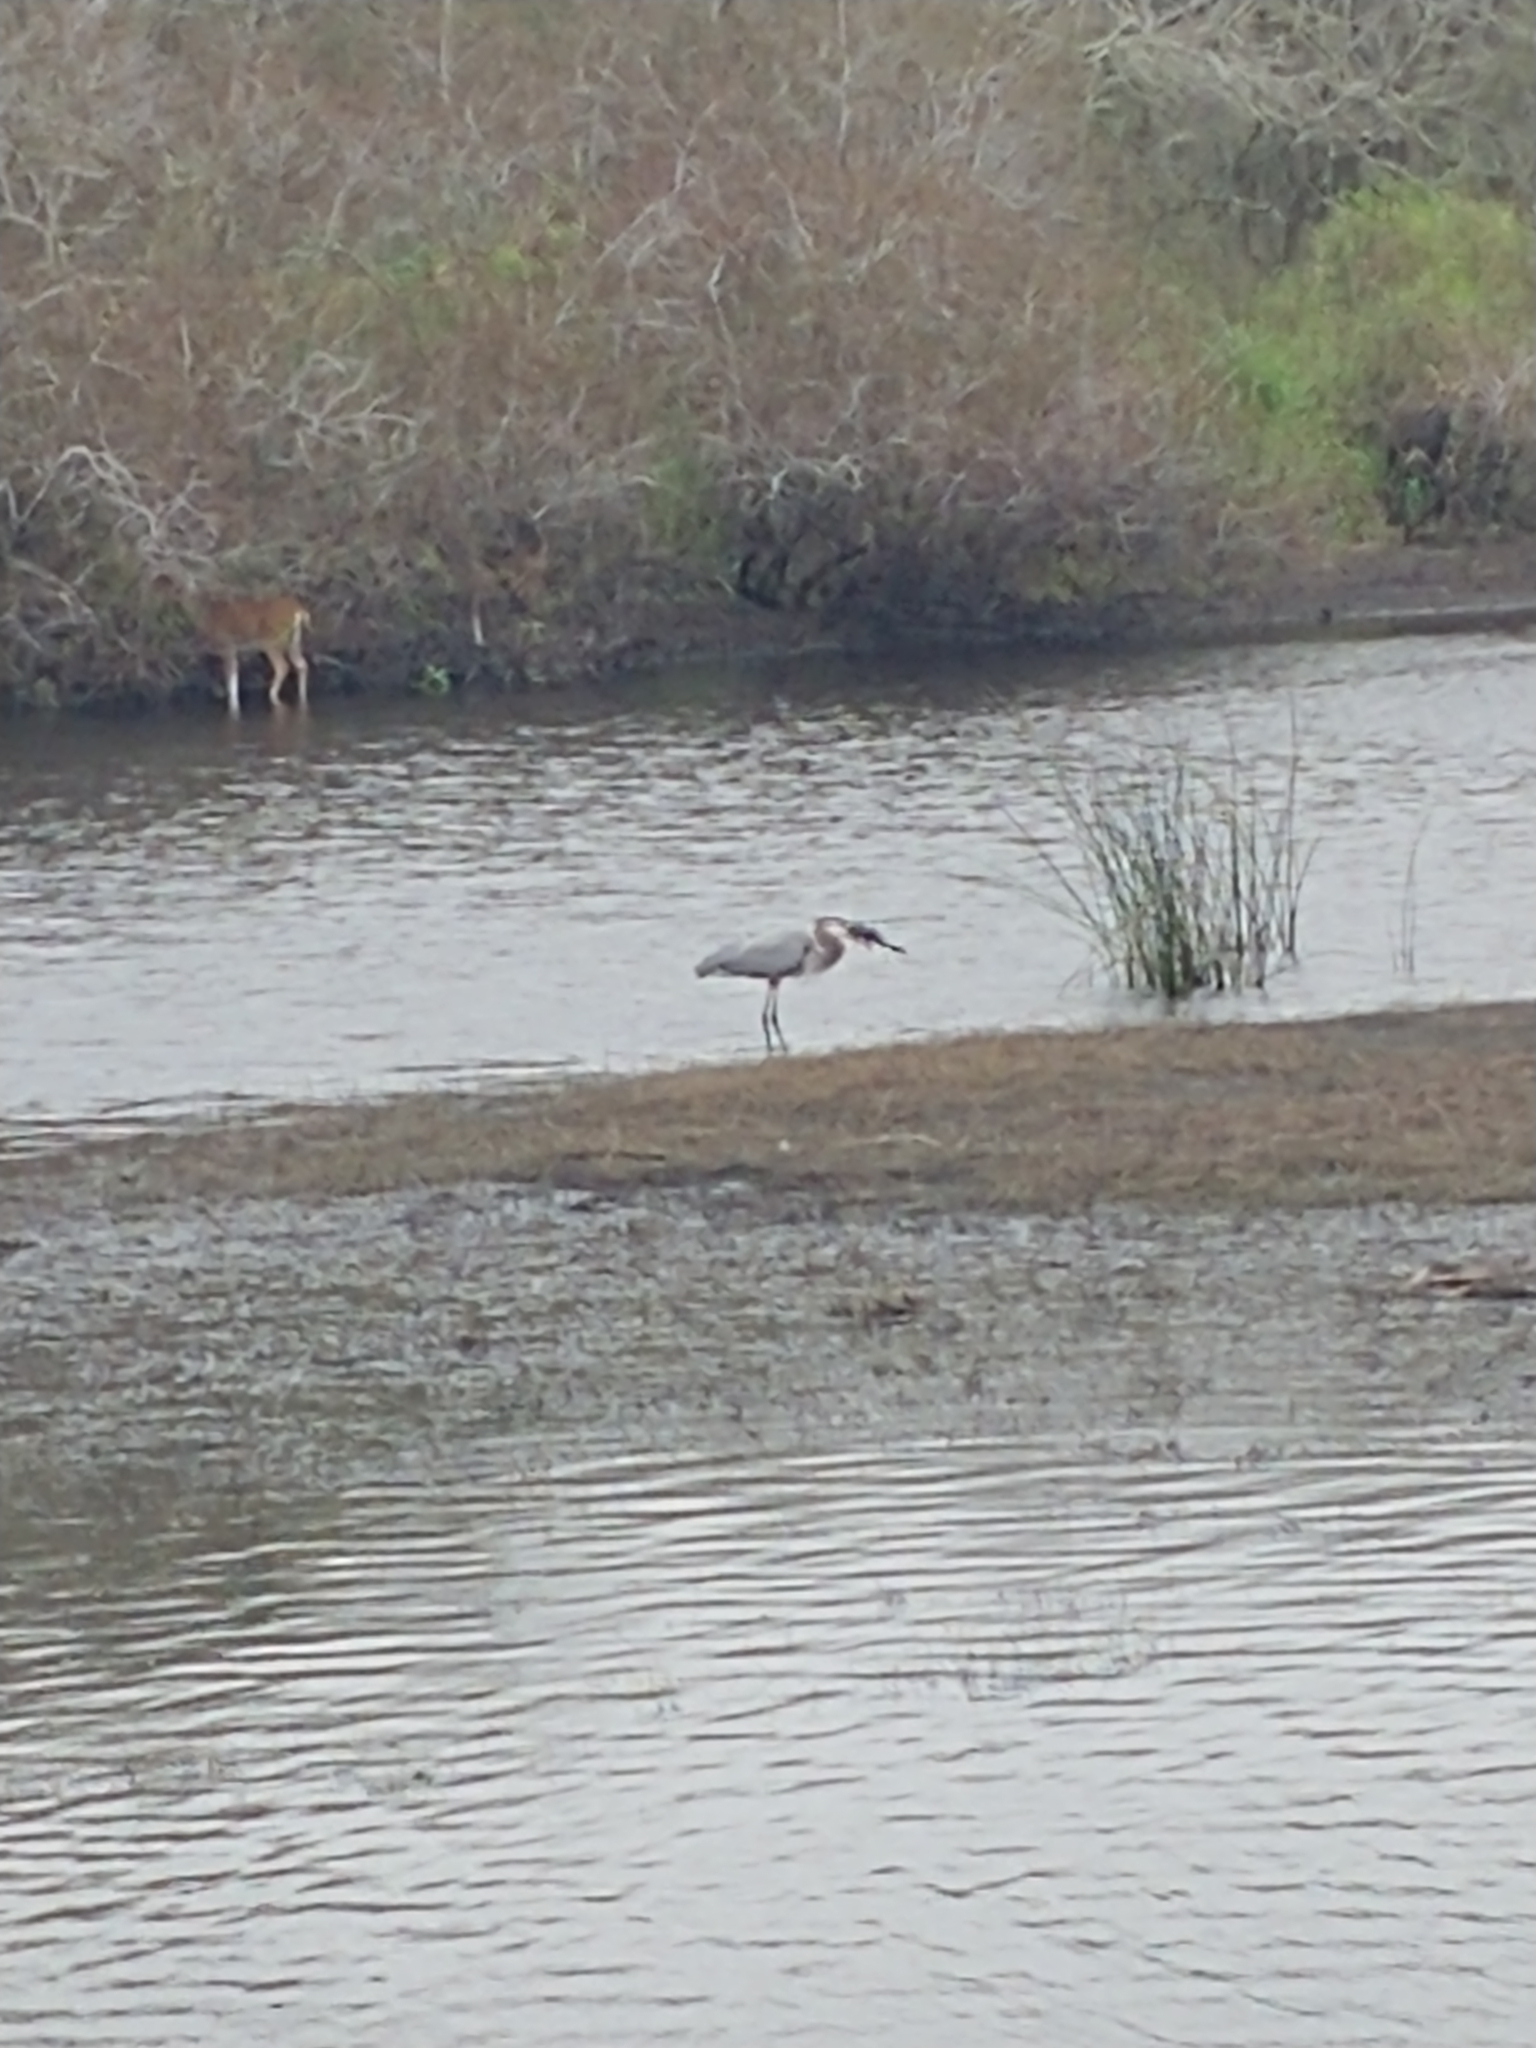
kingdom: Animalia
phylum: Chordata
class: Aves
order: Pelecaniformes
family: Ardeidae
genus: Ardea
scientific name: Ardea herodias
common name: Great blue heron
